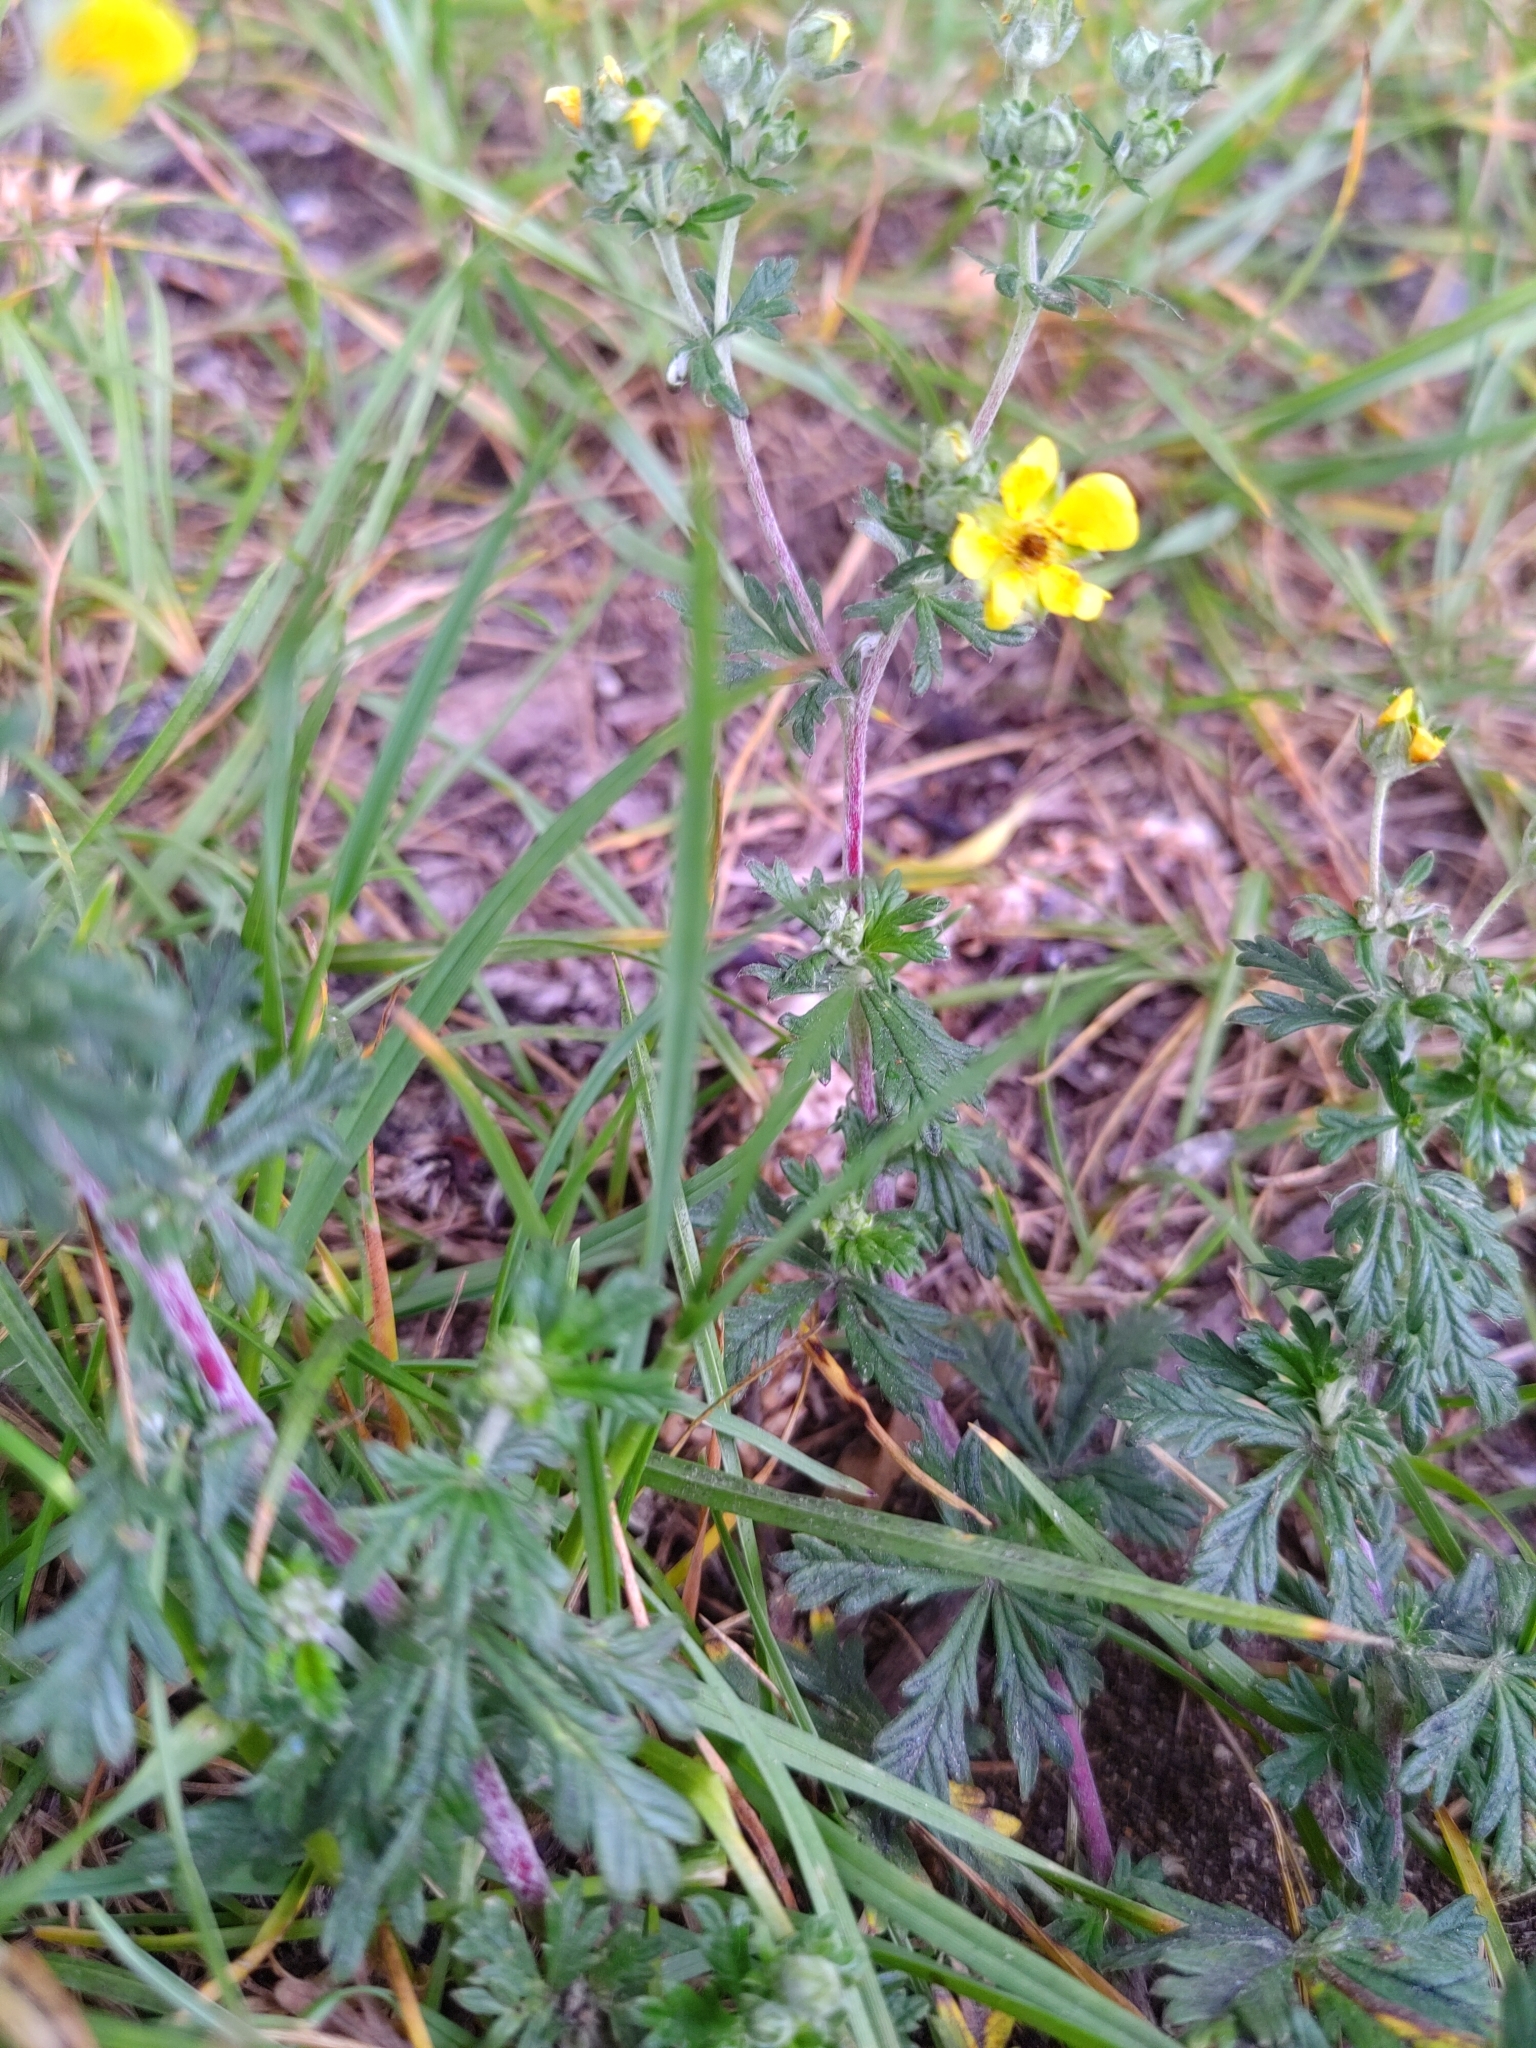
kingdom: Plantae
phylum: Tracheophyta
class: Magnoliopsida
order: Rosales
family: Rosaceae
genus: Potentilla
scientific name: Potentilla argentea
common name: Hoary cinquefoil
